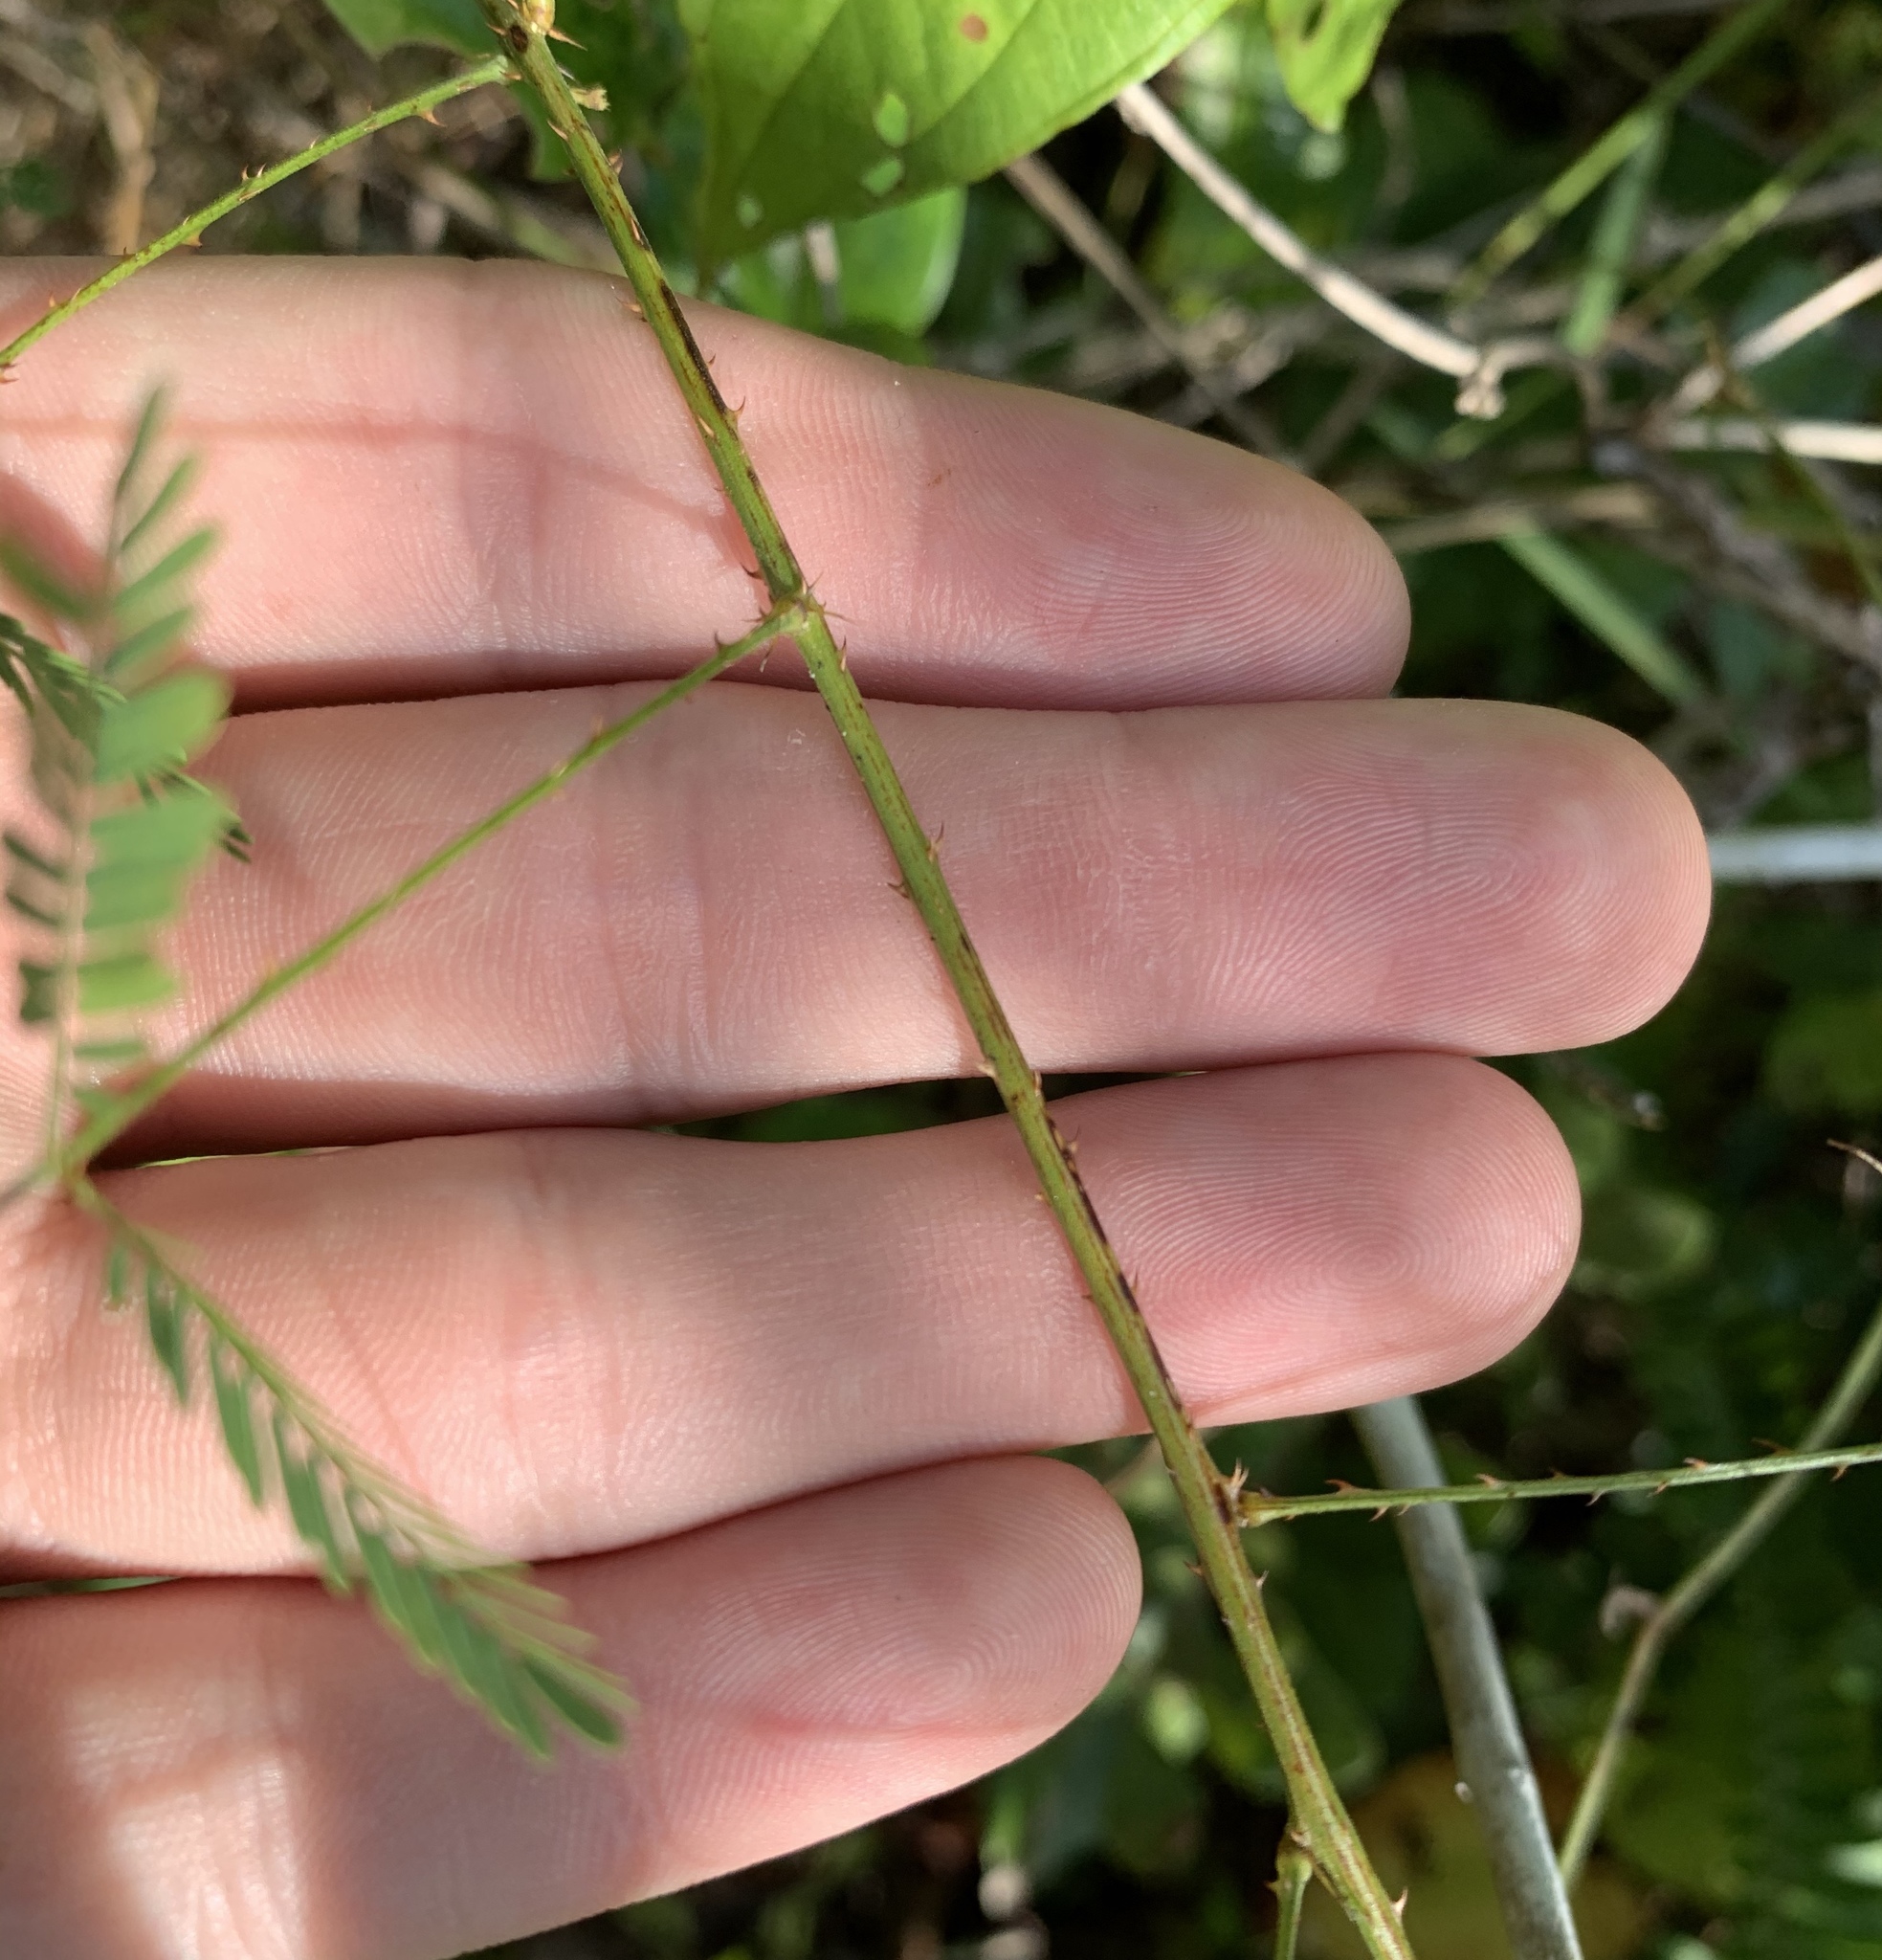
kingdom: Plantae
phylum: Tracheophyta
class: Magnoliopsida
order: Fabales
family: Fabaceae
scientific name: Fabaceae
